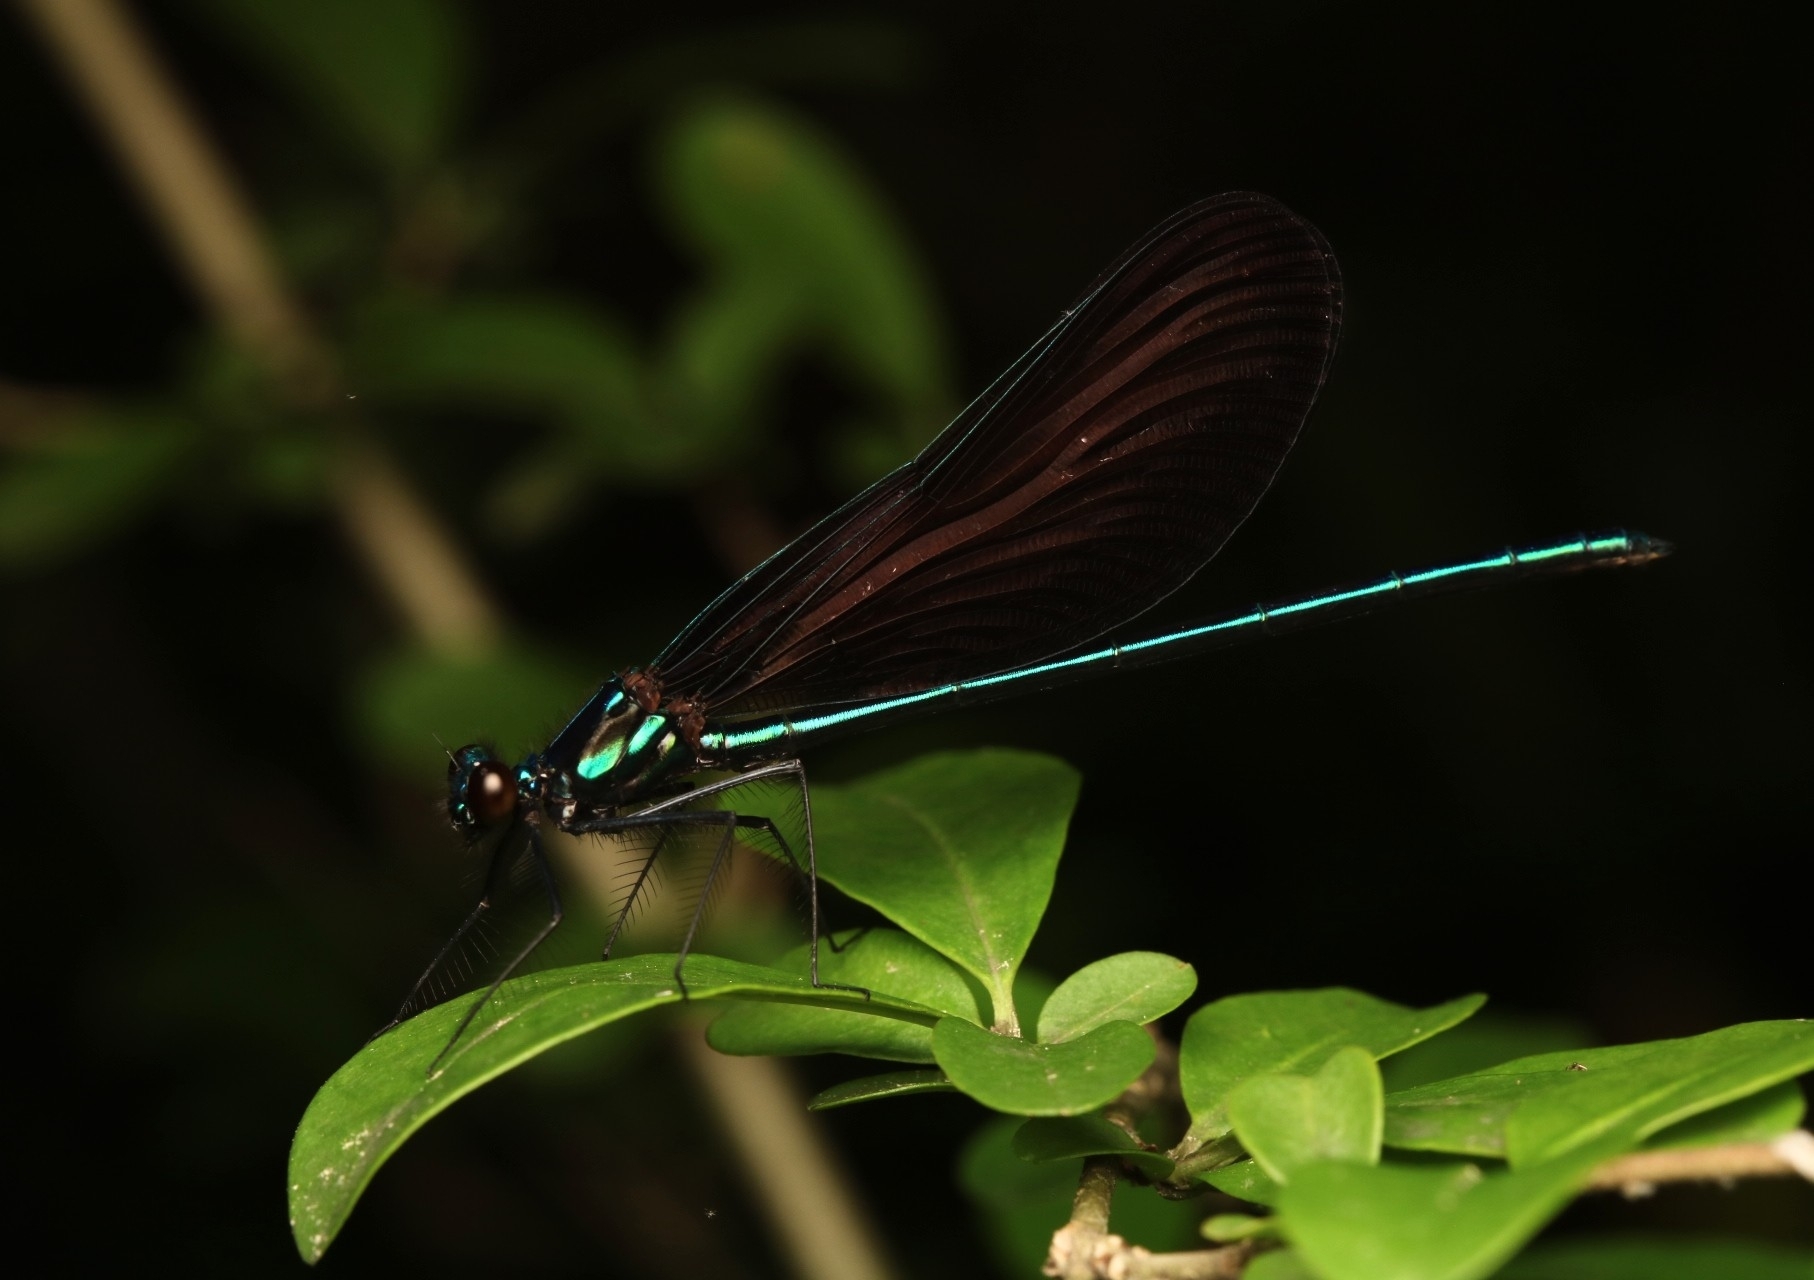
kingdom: Animalia
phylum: Arthropoda
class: Insecta
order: Odonata
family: Calopterygidae
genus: Calopteryx
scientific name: Calopteryx maculata
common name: Ebony jewelwing
